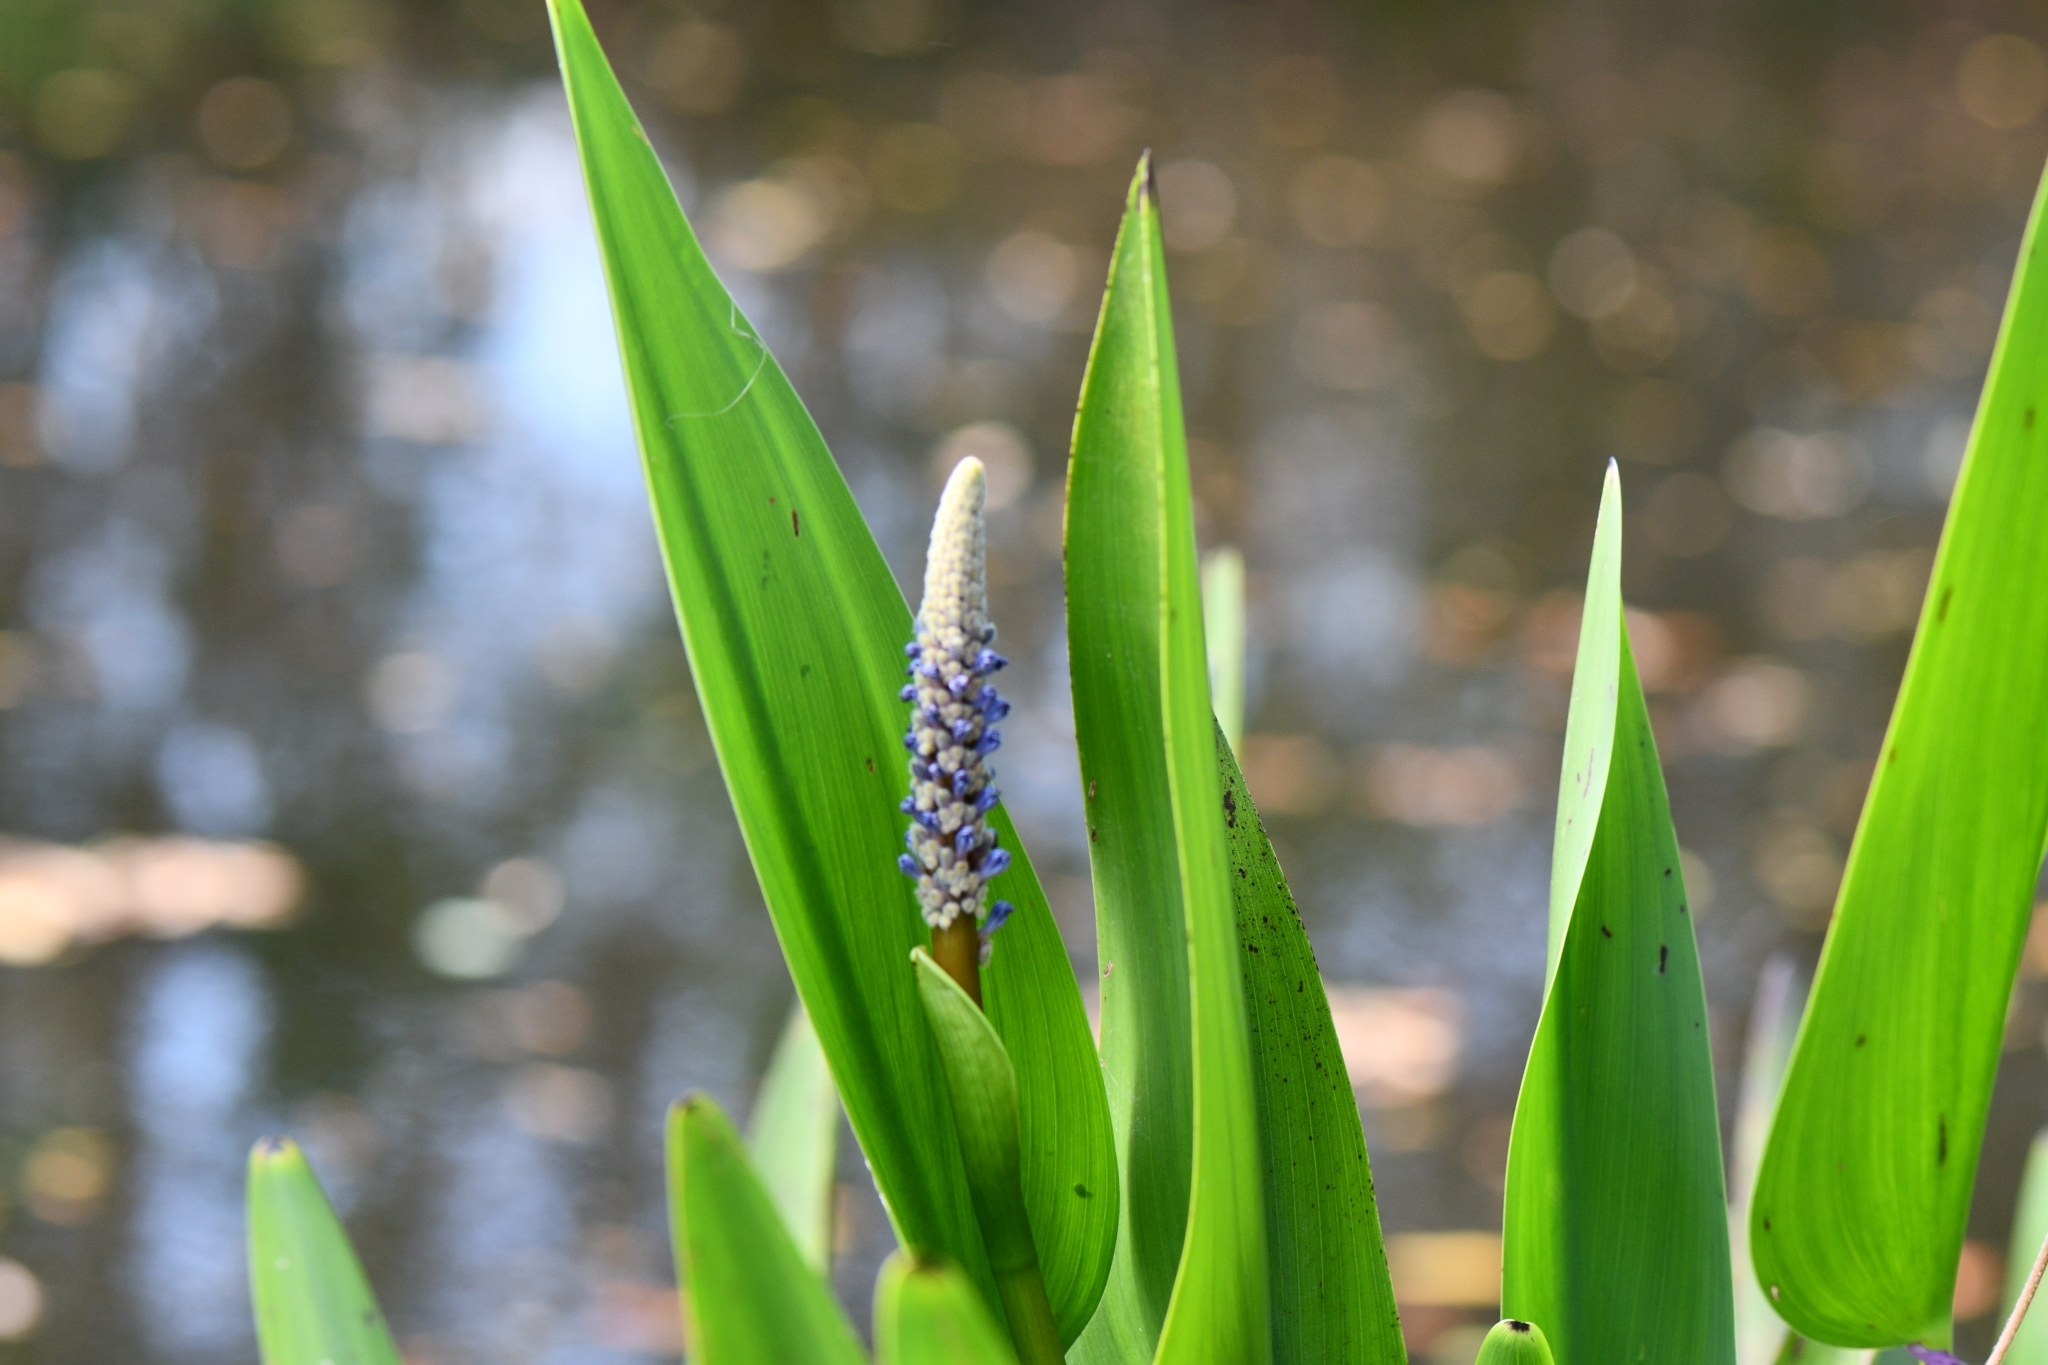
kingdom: Plantae
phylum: Tracheophyta
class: Liliopsida
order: Commelinales
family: Pontederiaceae
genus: Pontederia
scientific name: Pontederia cordata
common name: Pickerelweed
